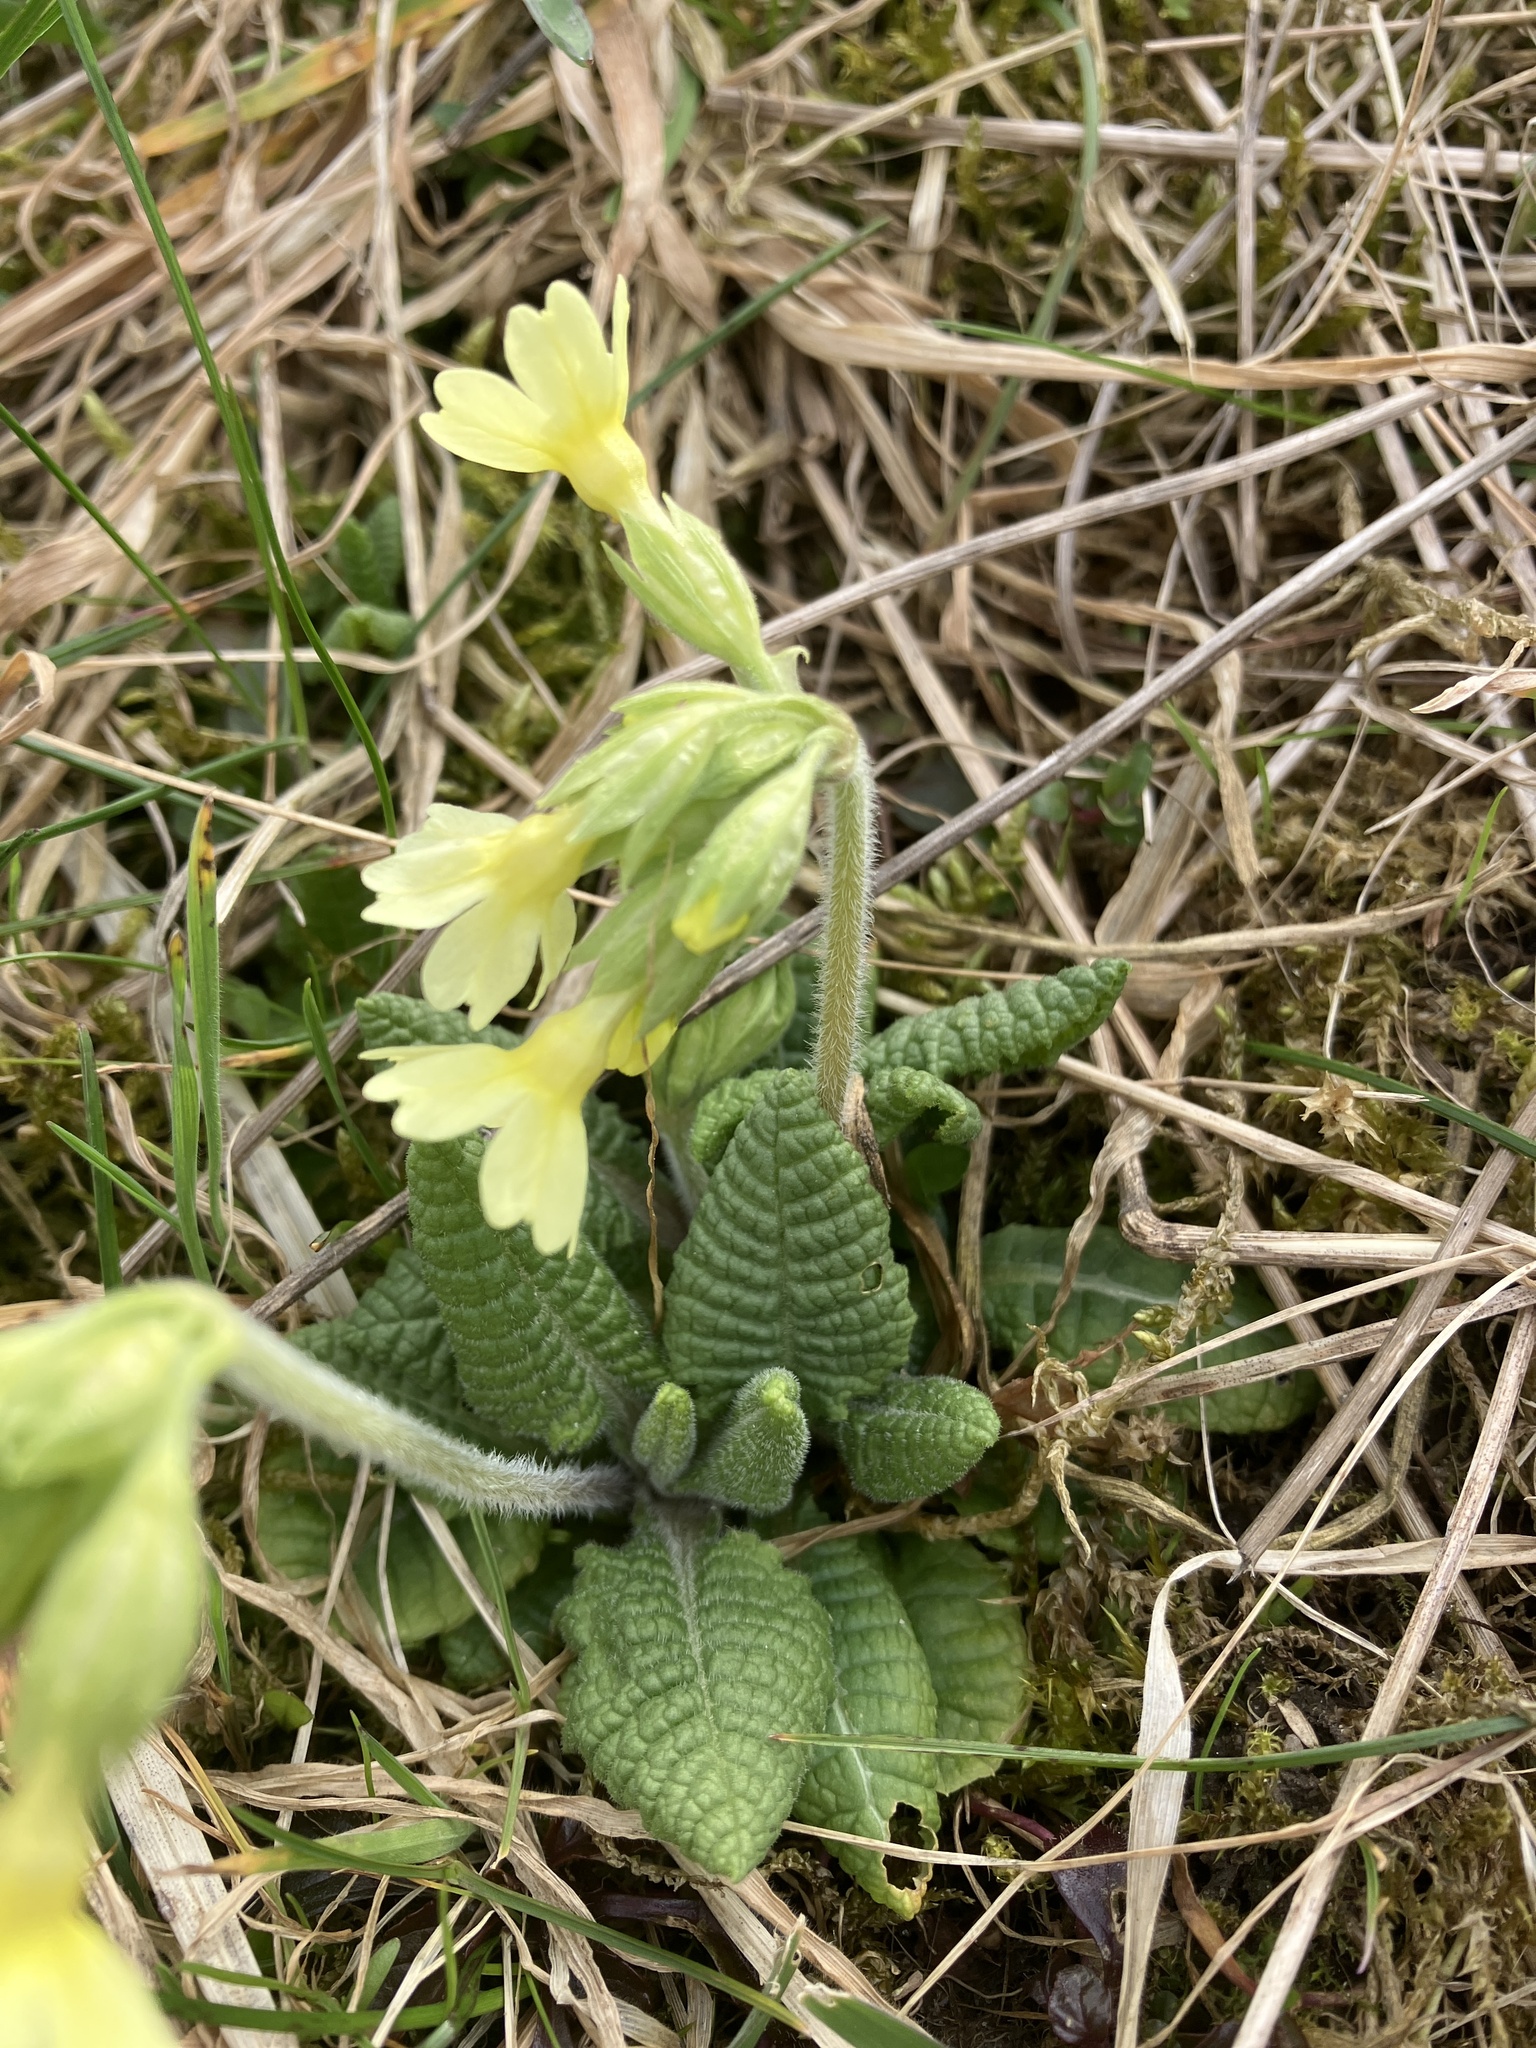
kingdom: Plantae
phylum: Tracheophyta
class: Magnoliopsida
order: Ericales
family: Primulaceae
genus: Primula
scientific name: Primula elatior
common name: Oxlip
